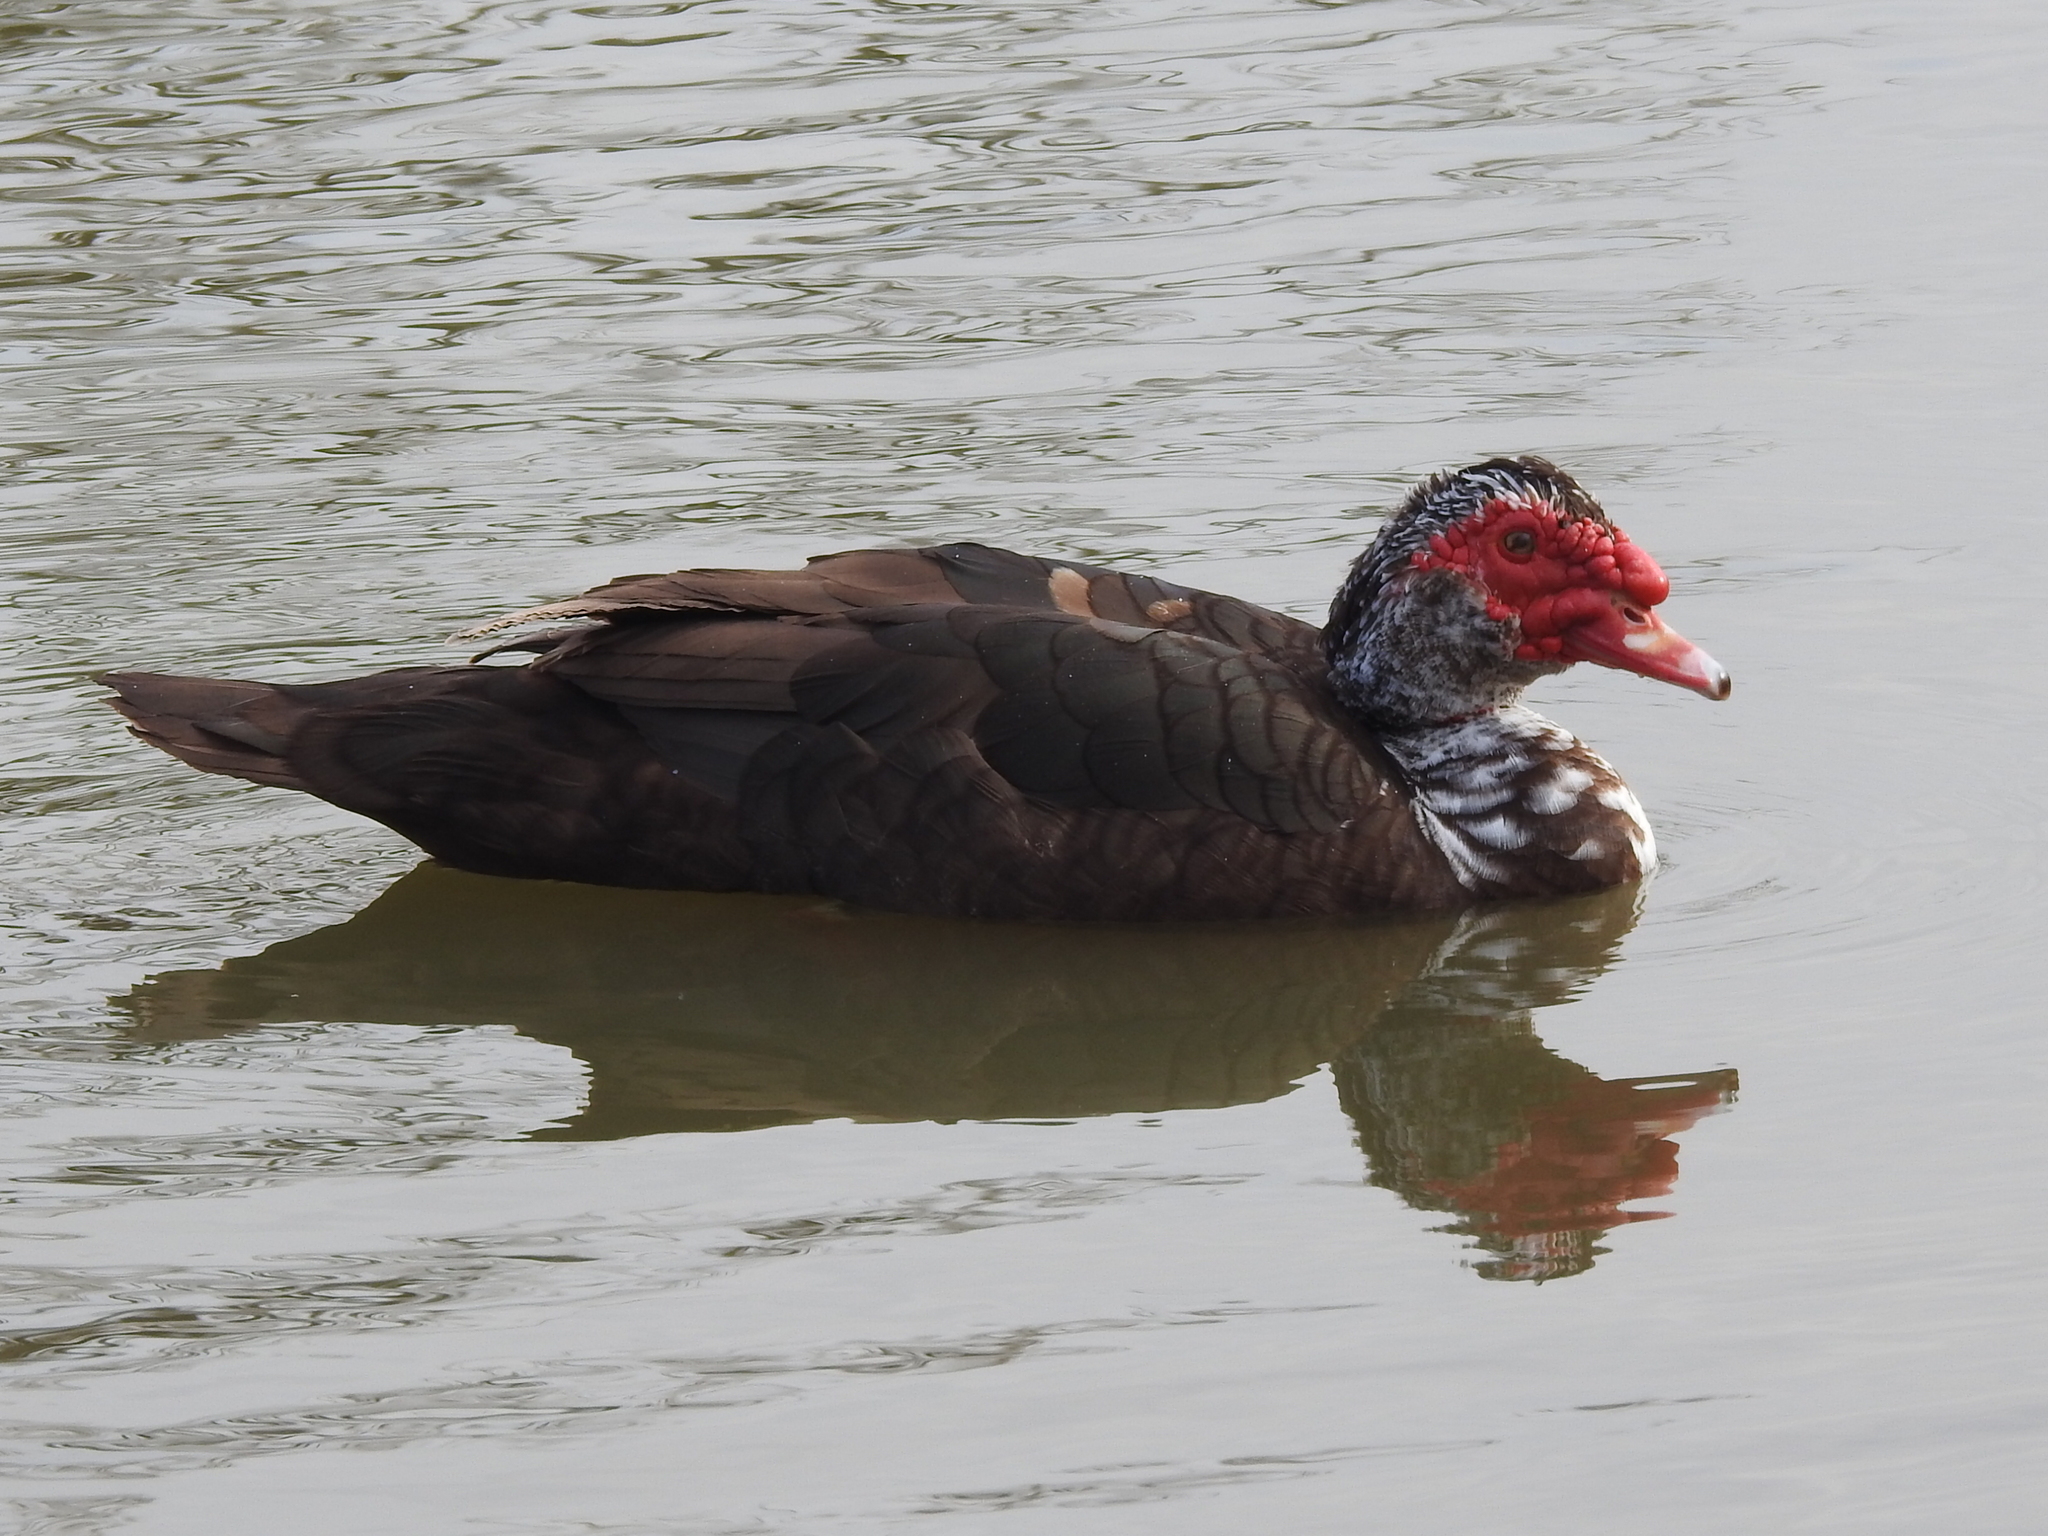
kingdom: Animalia
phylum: Chordata
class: Aves
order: Anseriformes
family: Anatidae
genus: Cairina
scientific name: Cairina moschata
